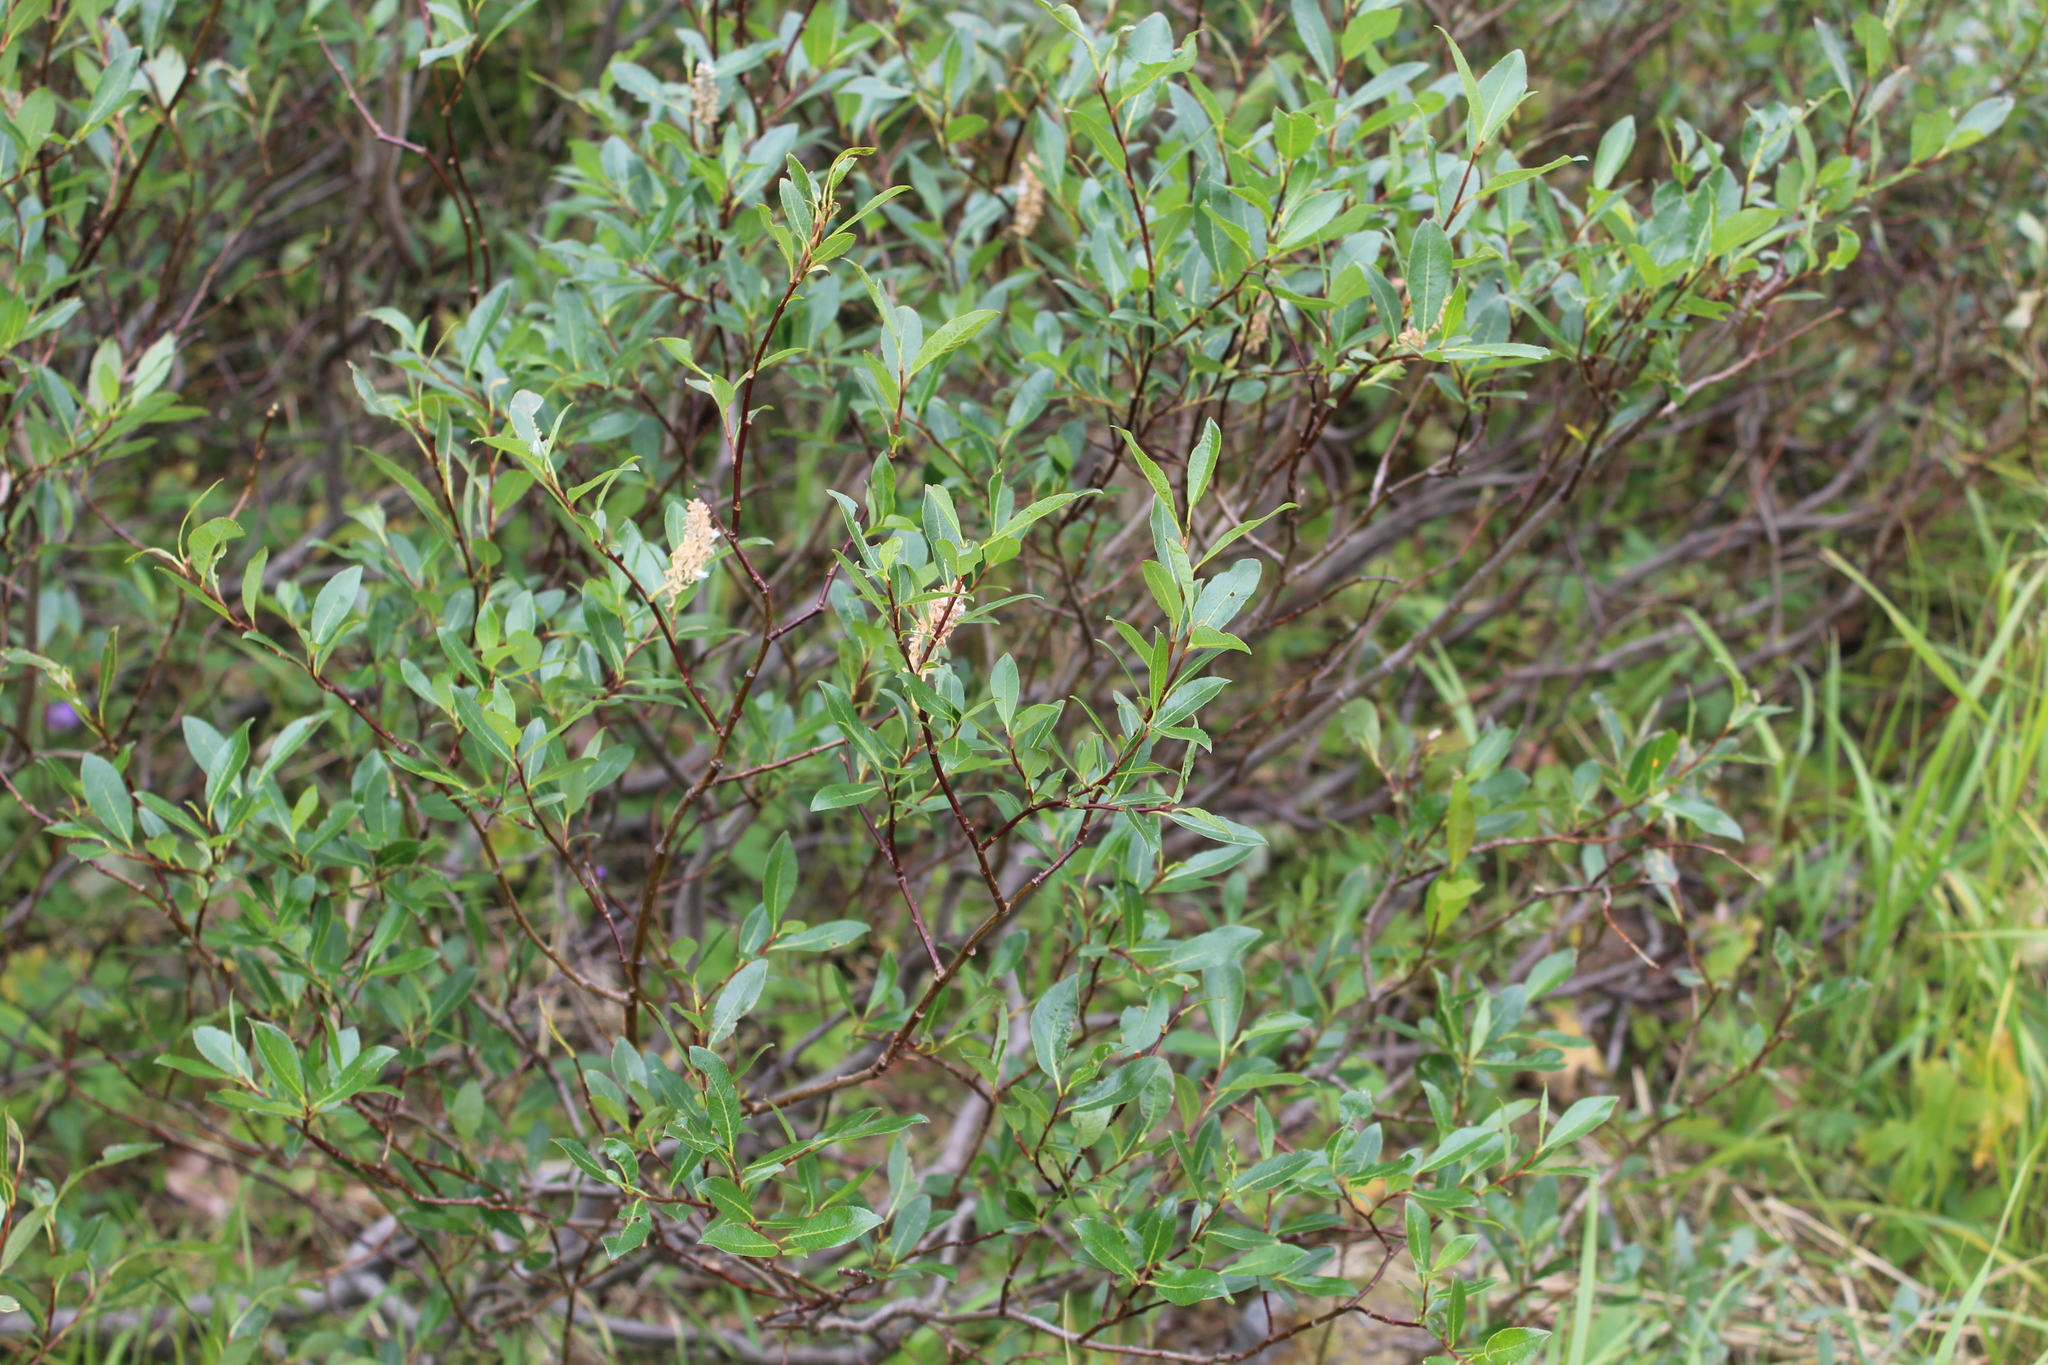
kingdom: Plantae
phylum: Tracheophyta
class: Magnoliopsida
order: Malpighiales
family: Salicaceae
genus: Salix
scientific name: Salix phylicifolia
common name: Tea-leaved willow
